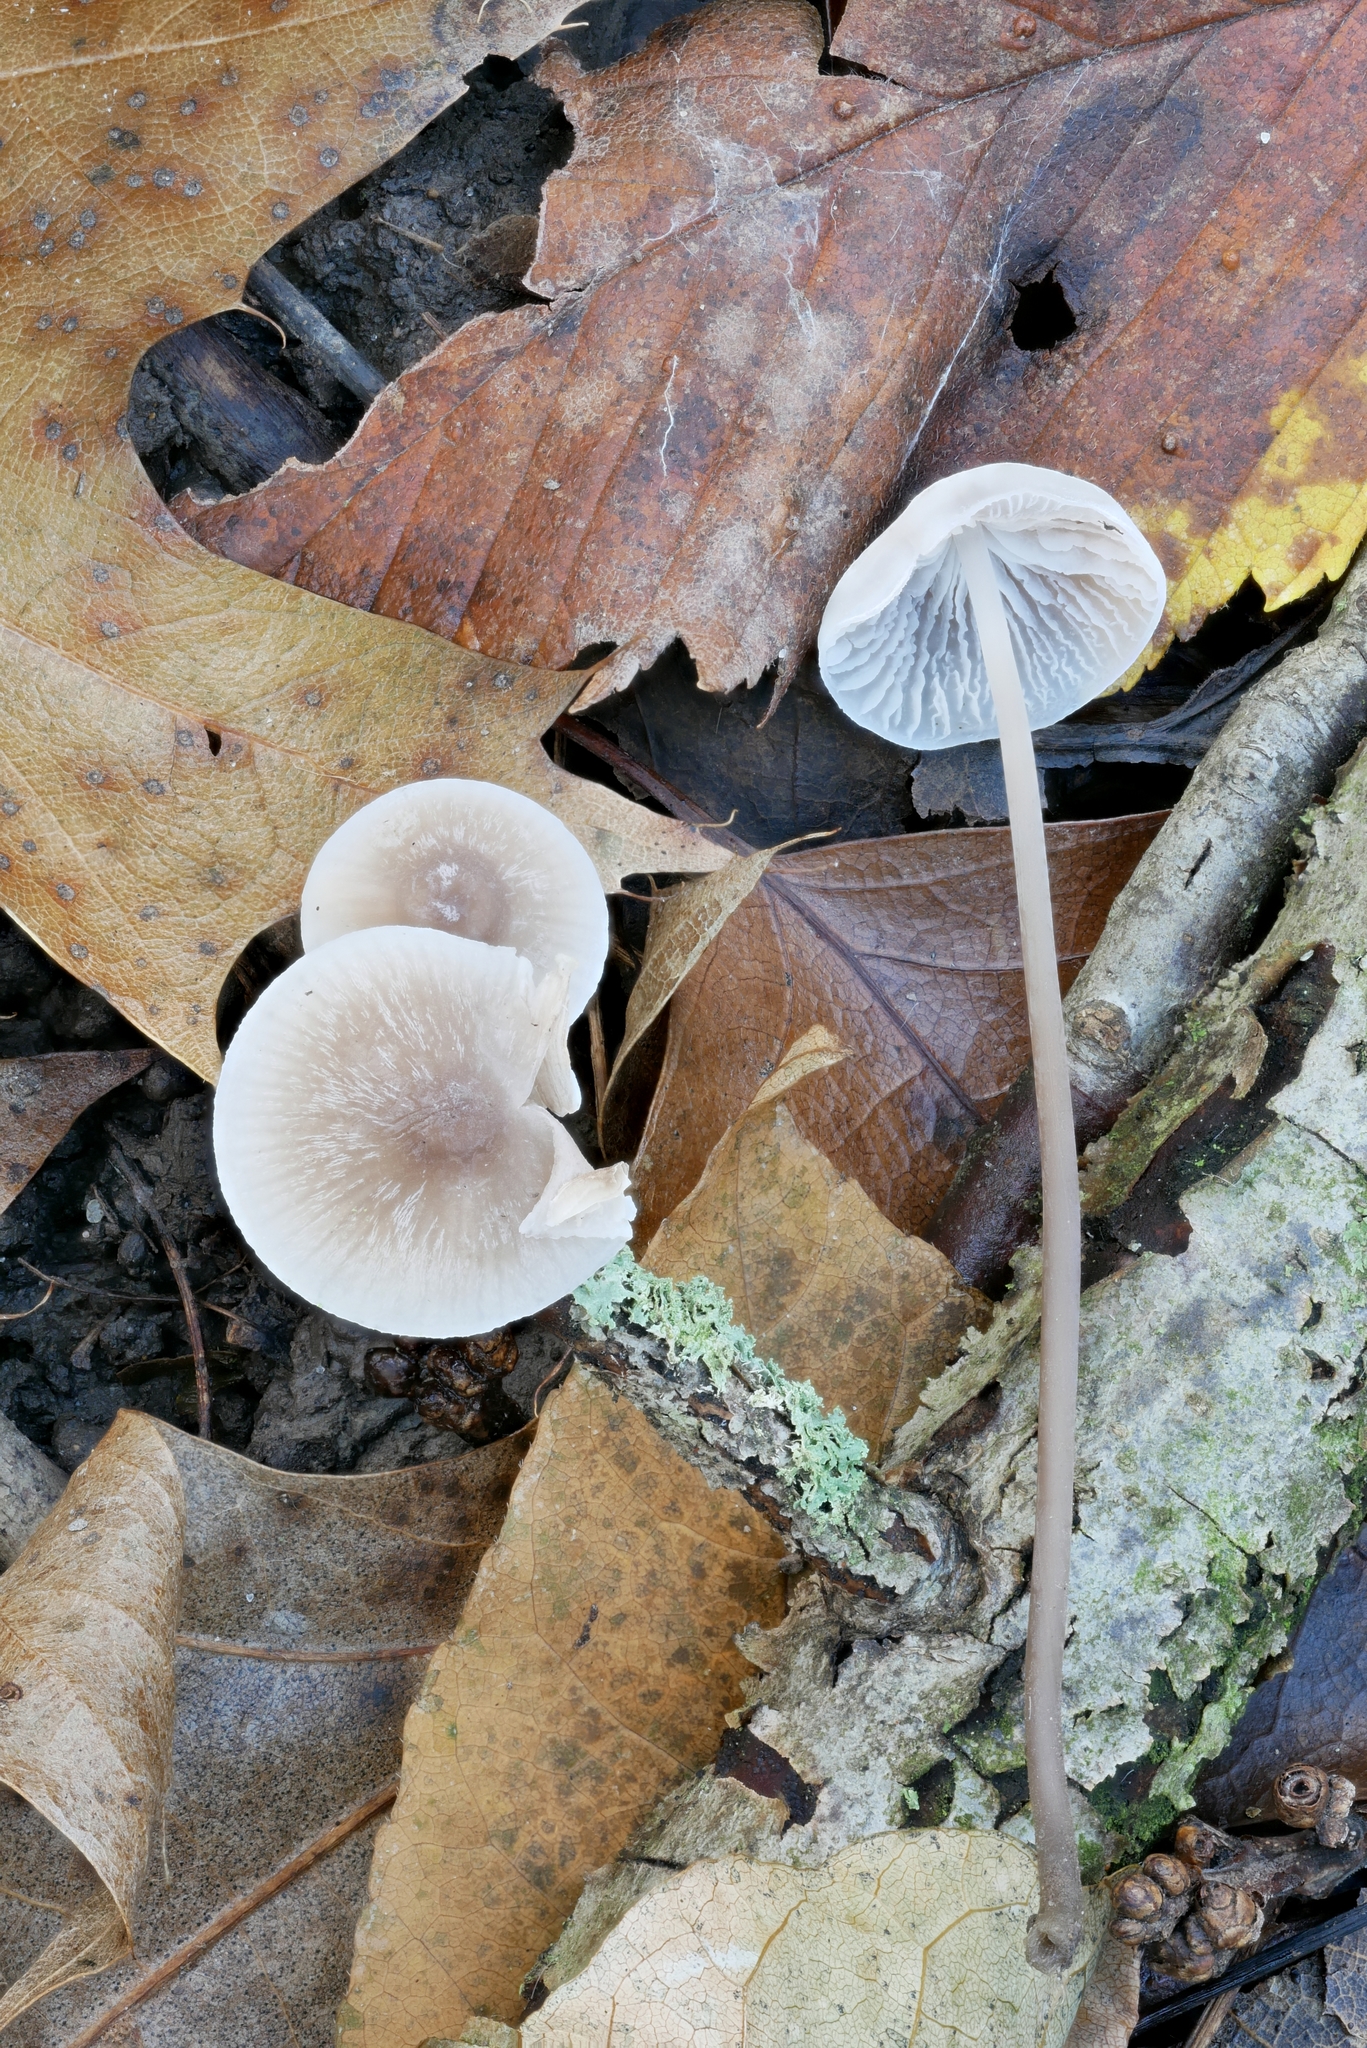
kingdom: Fungi
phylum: Basidiomycota
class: Agaricomycetes
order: Agaricales
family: Mycenaceae
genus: Mycena
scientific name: Mycena filopes
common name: Iodine bonnet
